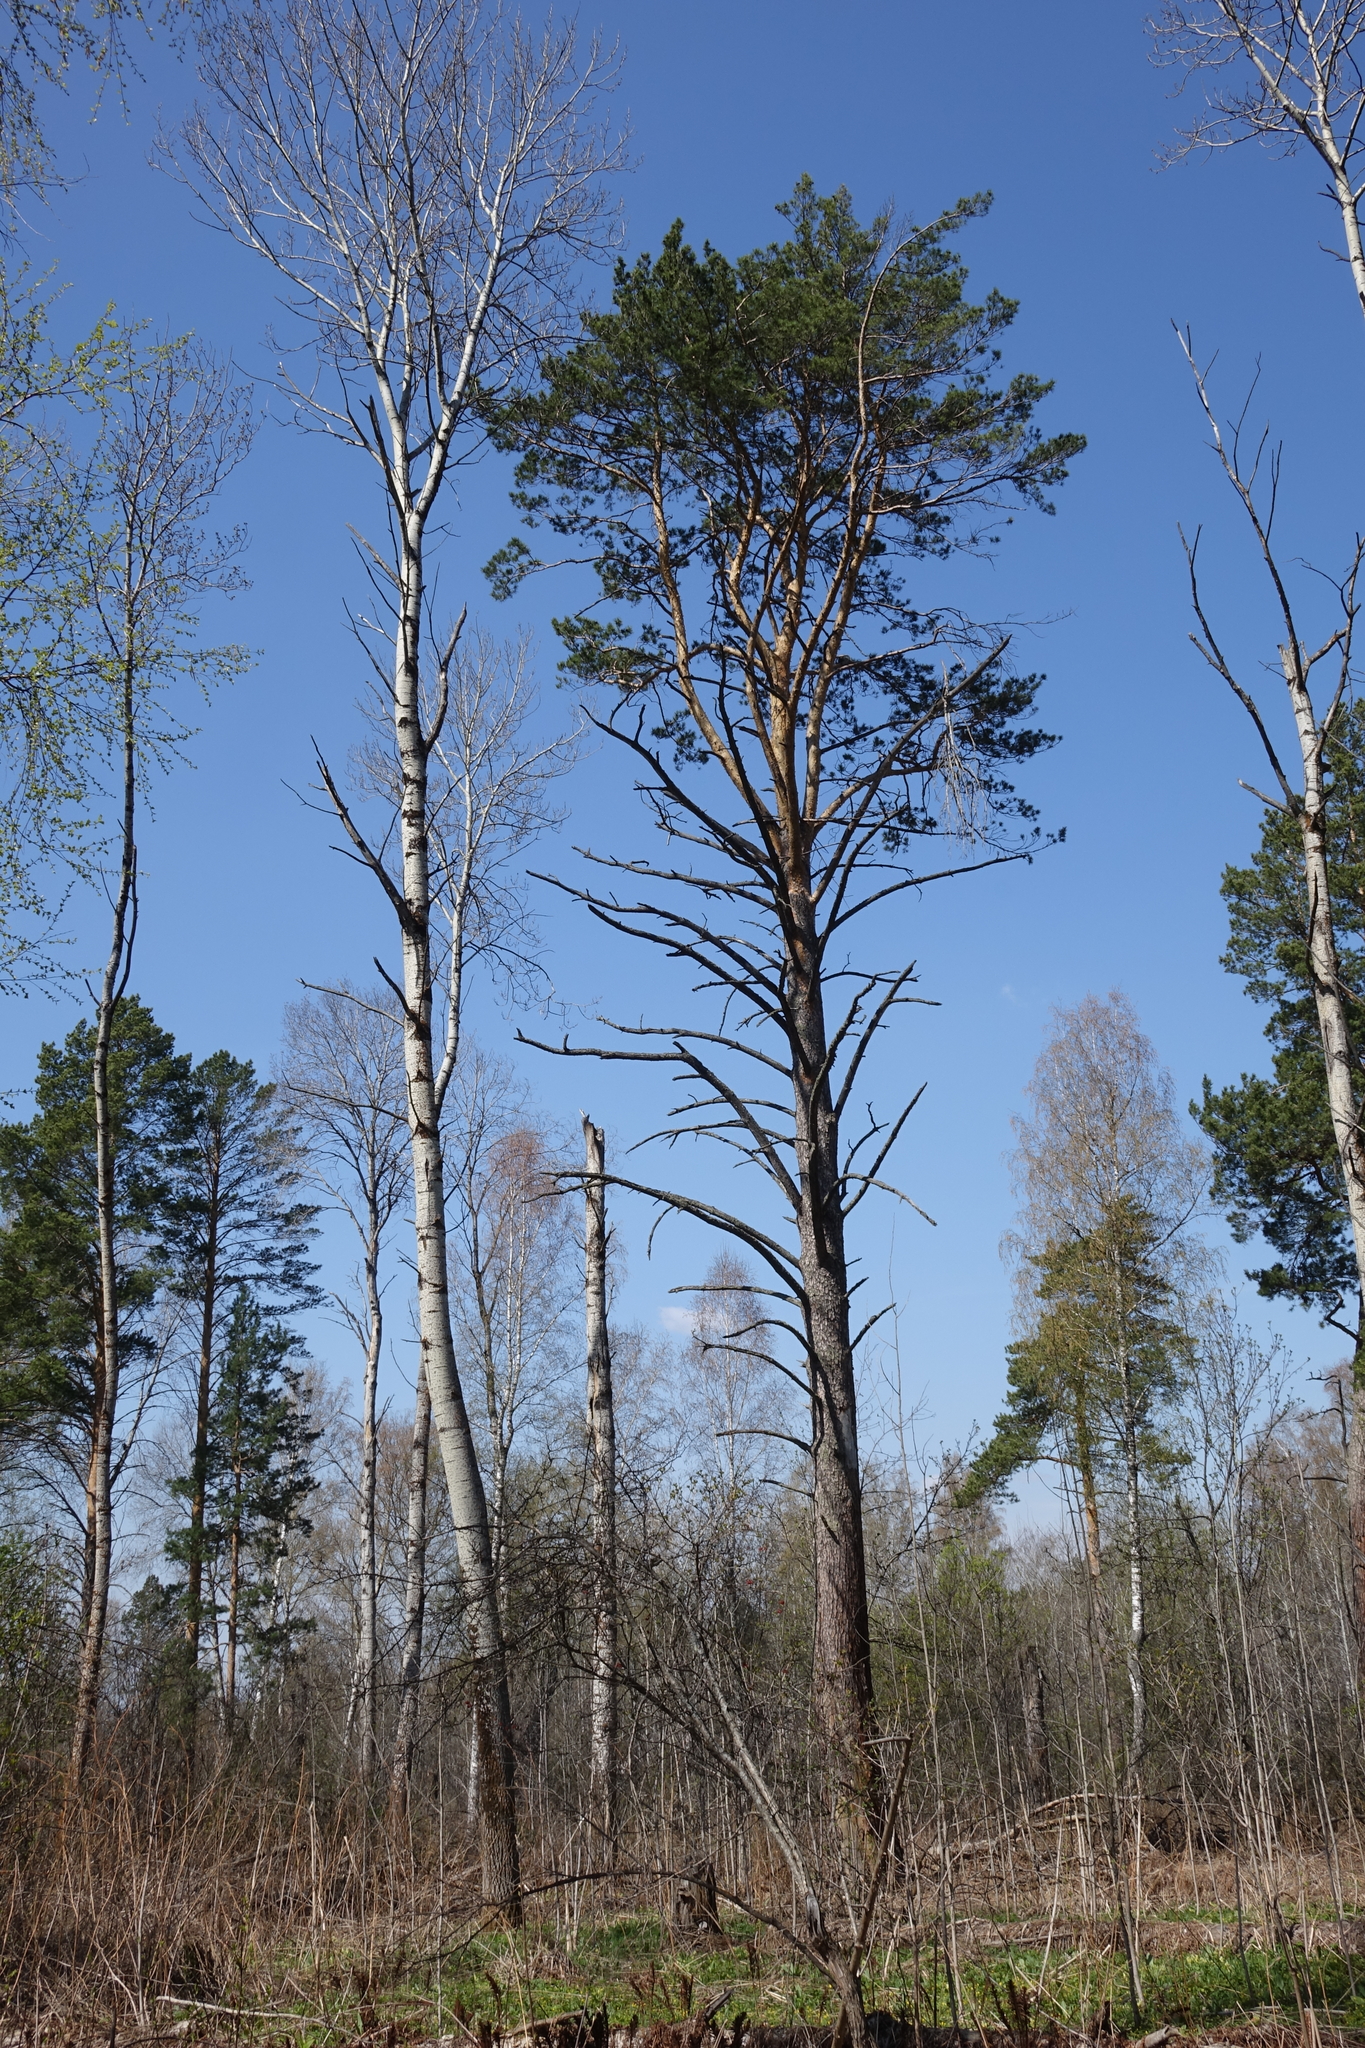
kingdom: Plantae
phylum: Tracheophyta
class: Pinopsida
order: Pinales
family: Pinaceae
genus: Pinus
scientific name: Pinus sylvestris
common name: Scots pine
